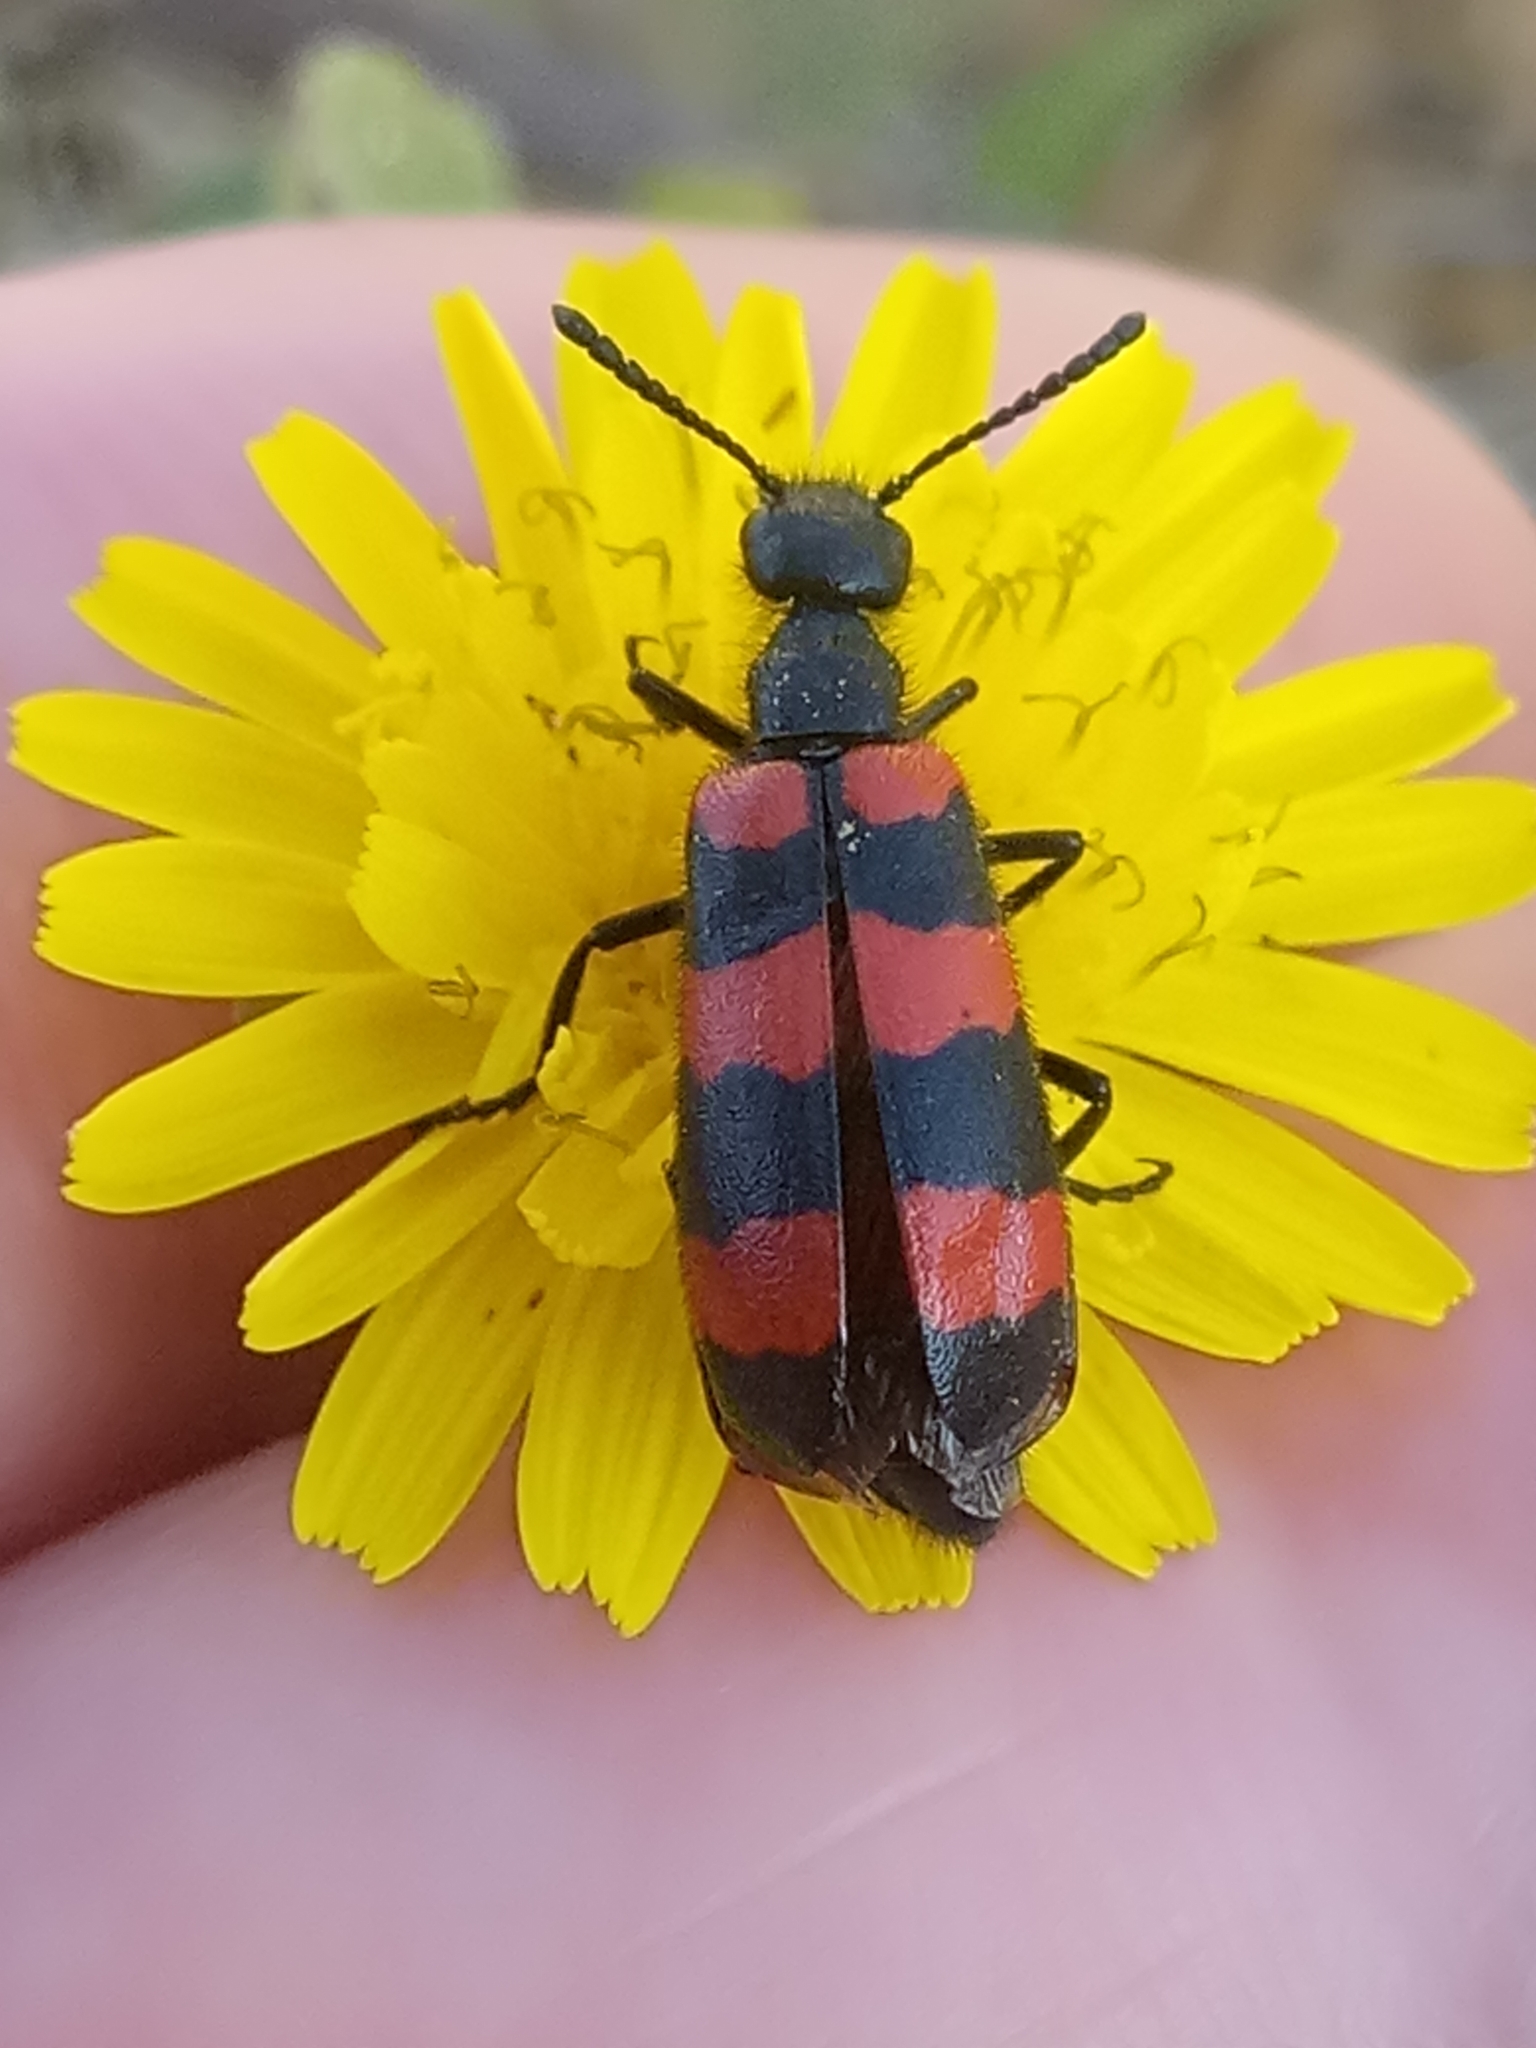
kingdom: Animalia
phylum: Arthropoda
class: Insecta
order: Coleoptera
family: Meloidae
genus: Mylabris
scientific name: Mylabris tricincta
